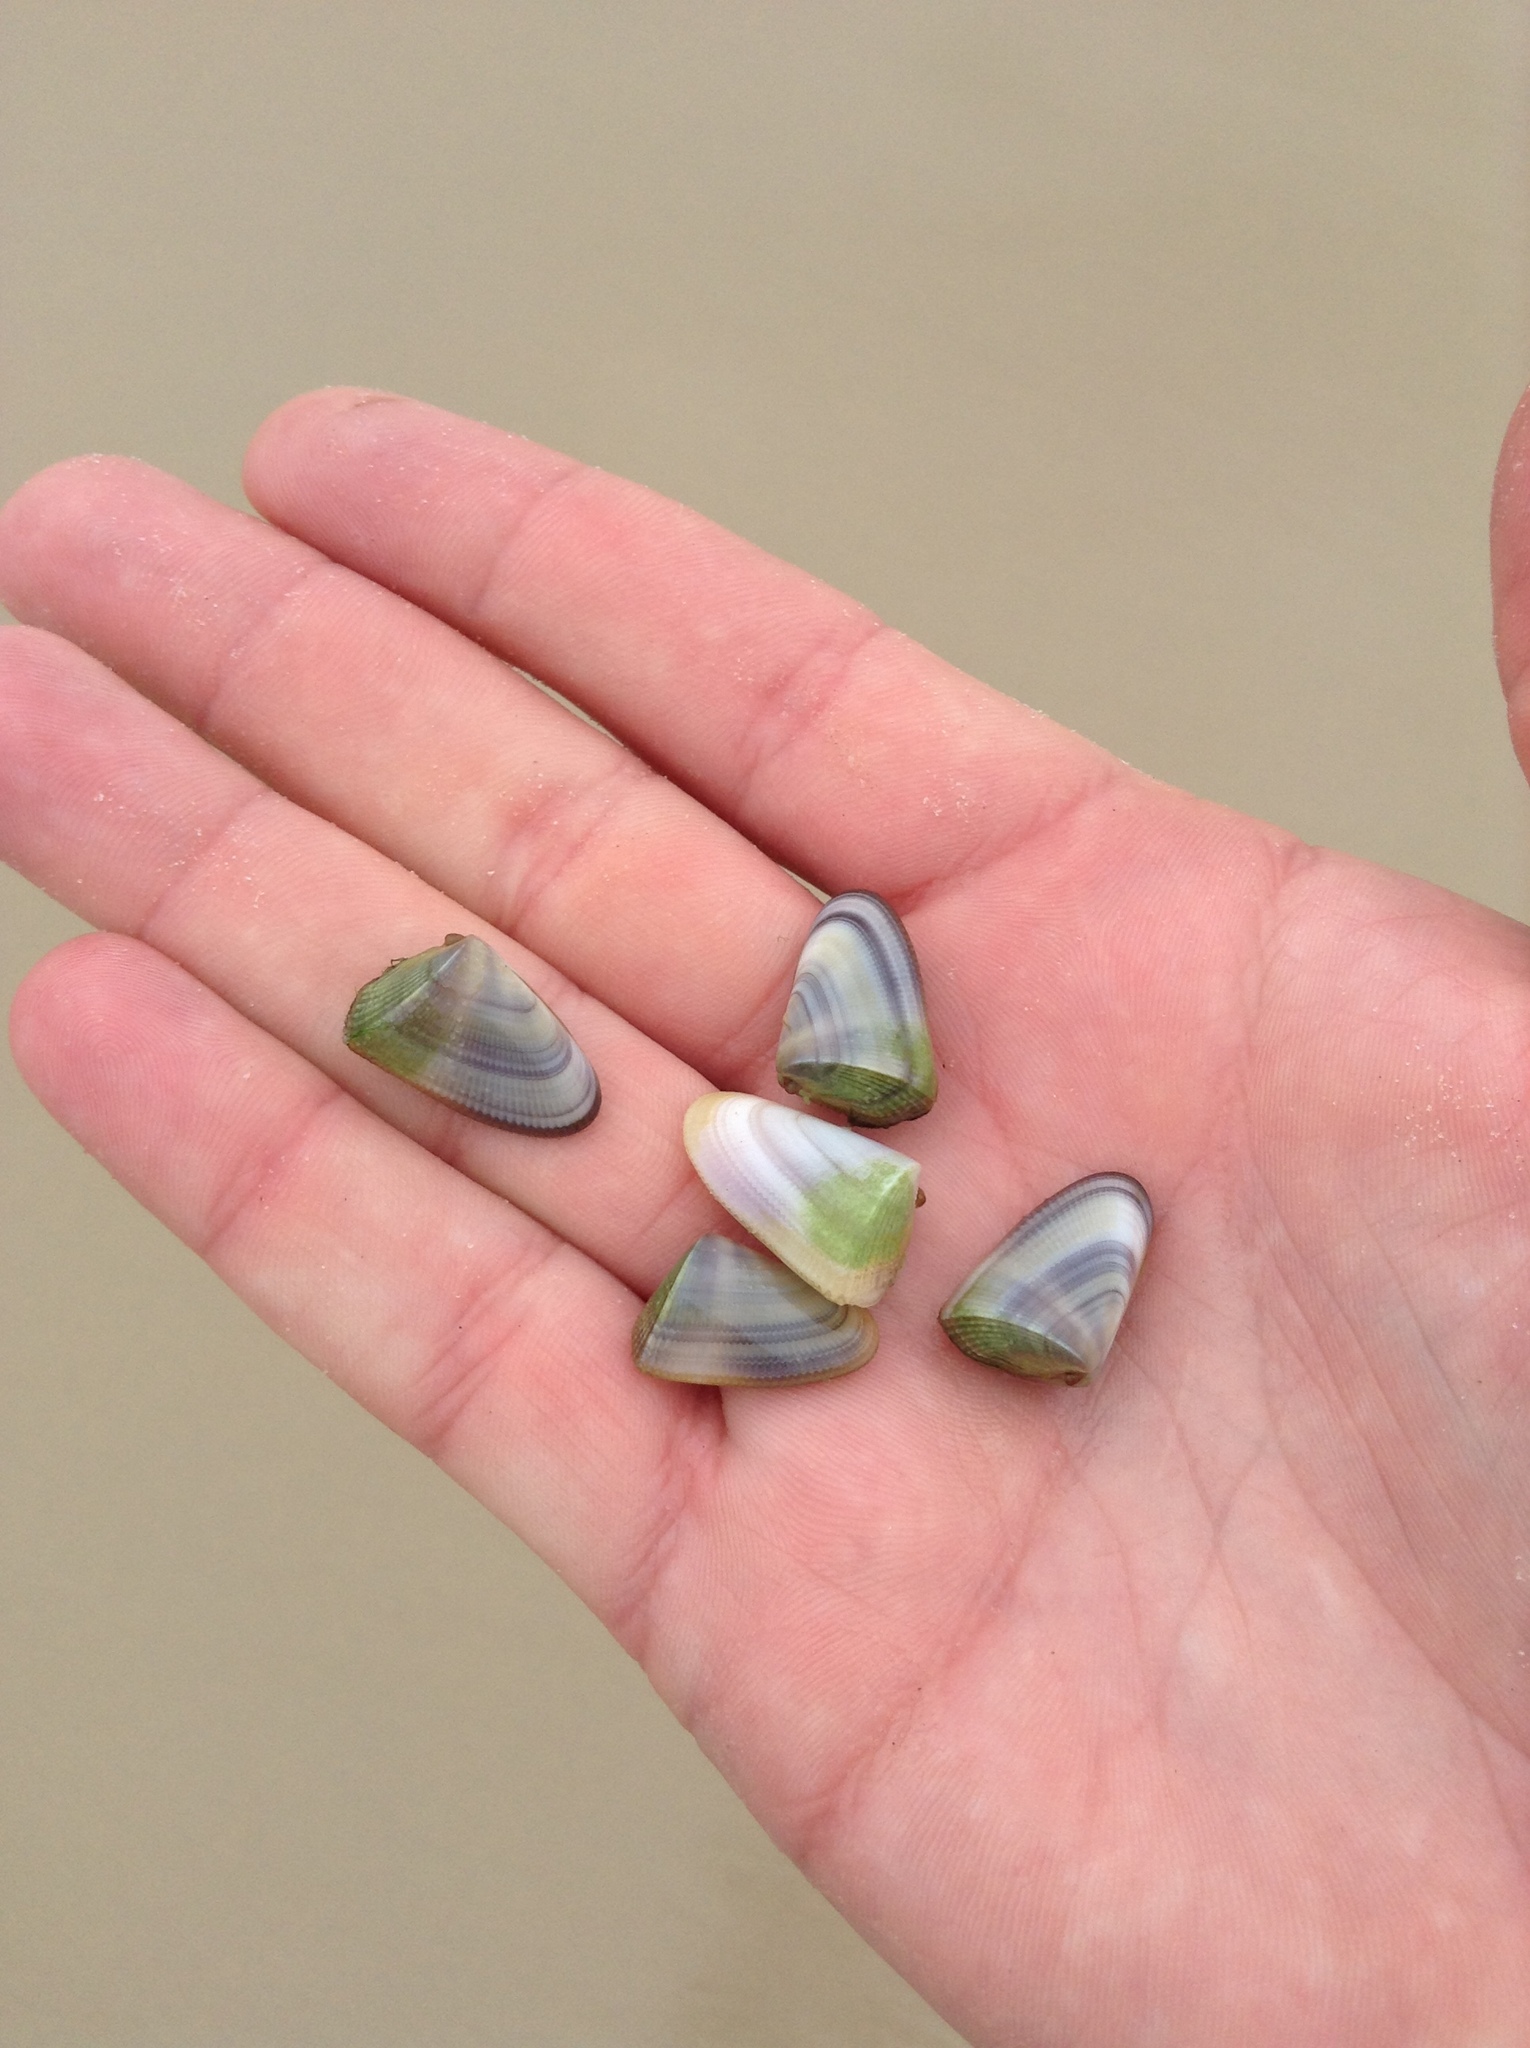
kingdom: Animalia
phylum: Mollusca
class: Bivalvia
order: Cardiida
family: Donacidae
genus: Donax
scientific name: Donax hanleyanus
